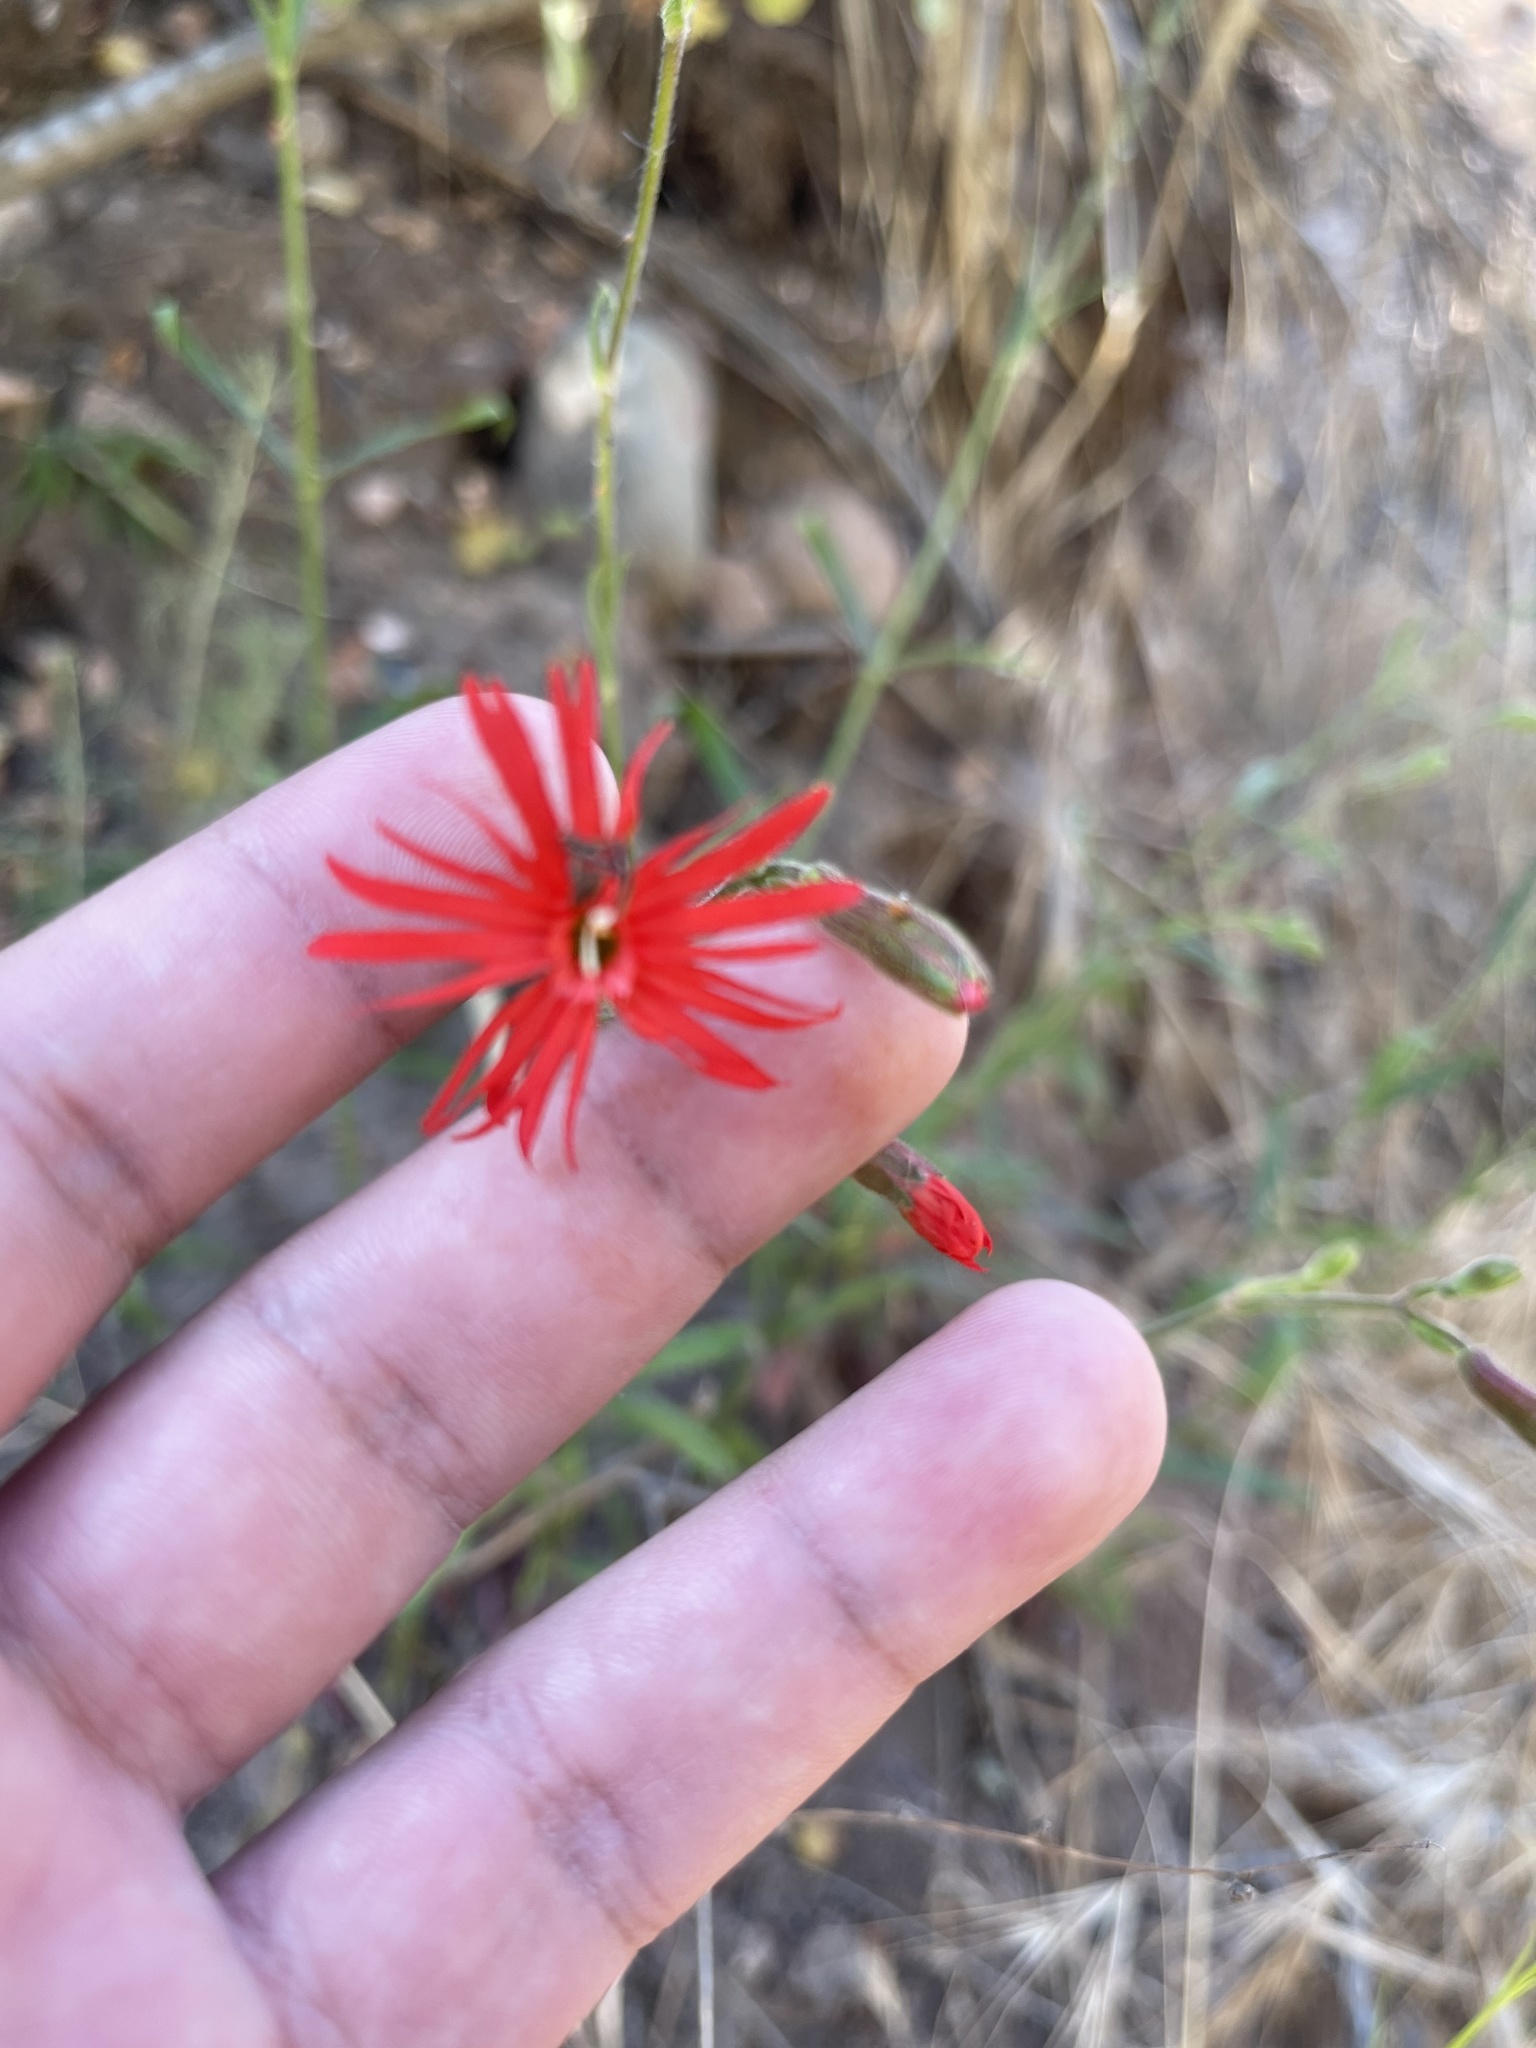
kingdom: Plantae
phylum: Tracheophyta
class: Magnoliopsida
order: Caryophyllales
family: Caryophyllaceae
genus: Silene
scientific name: Silene laciniata
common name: Indian-pink
